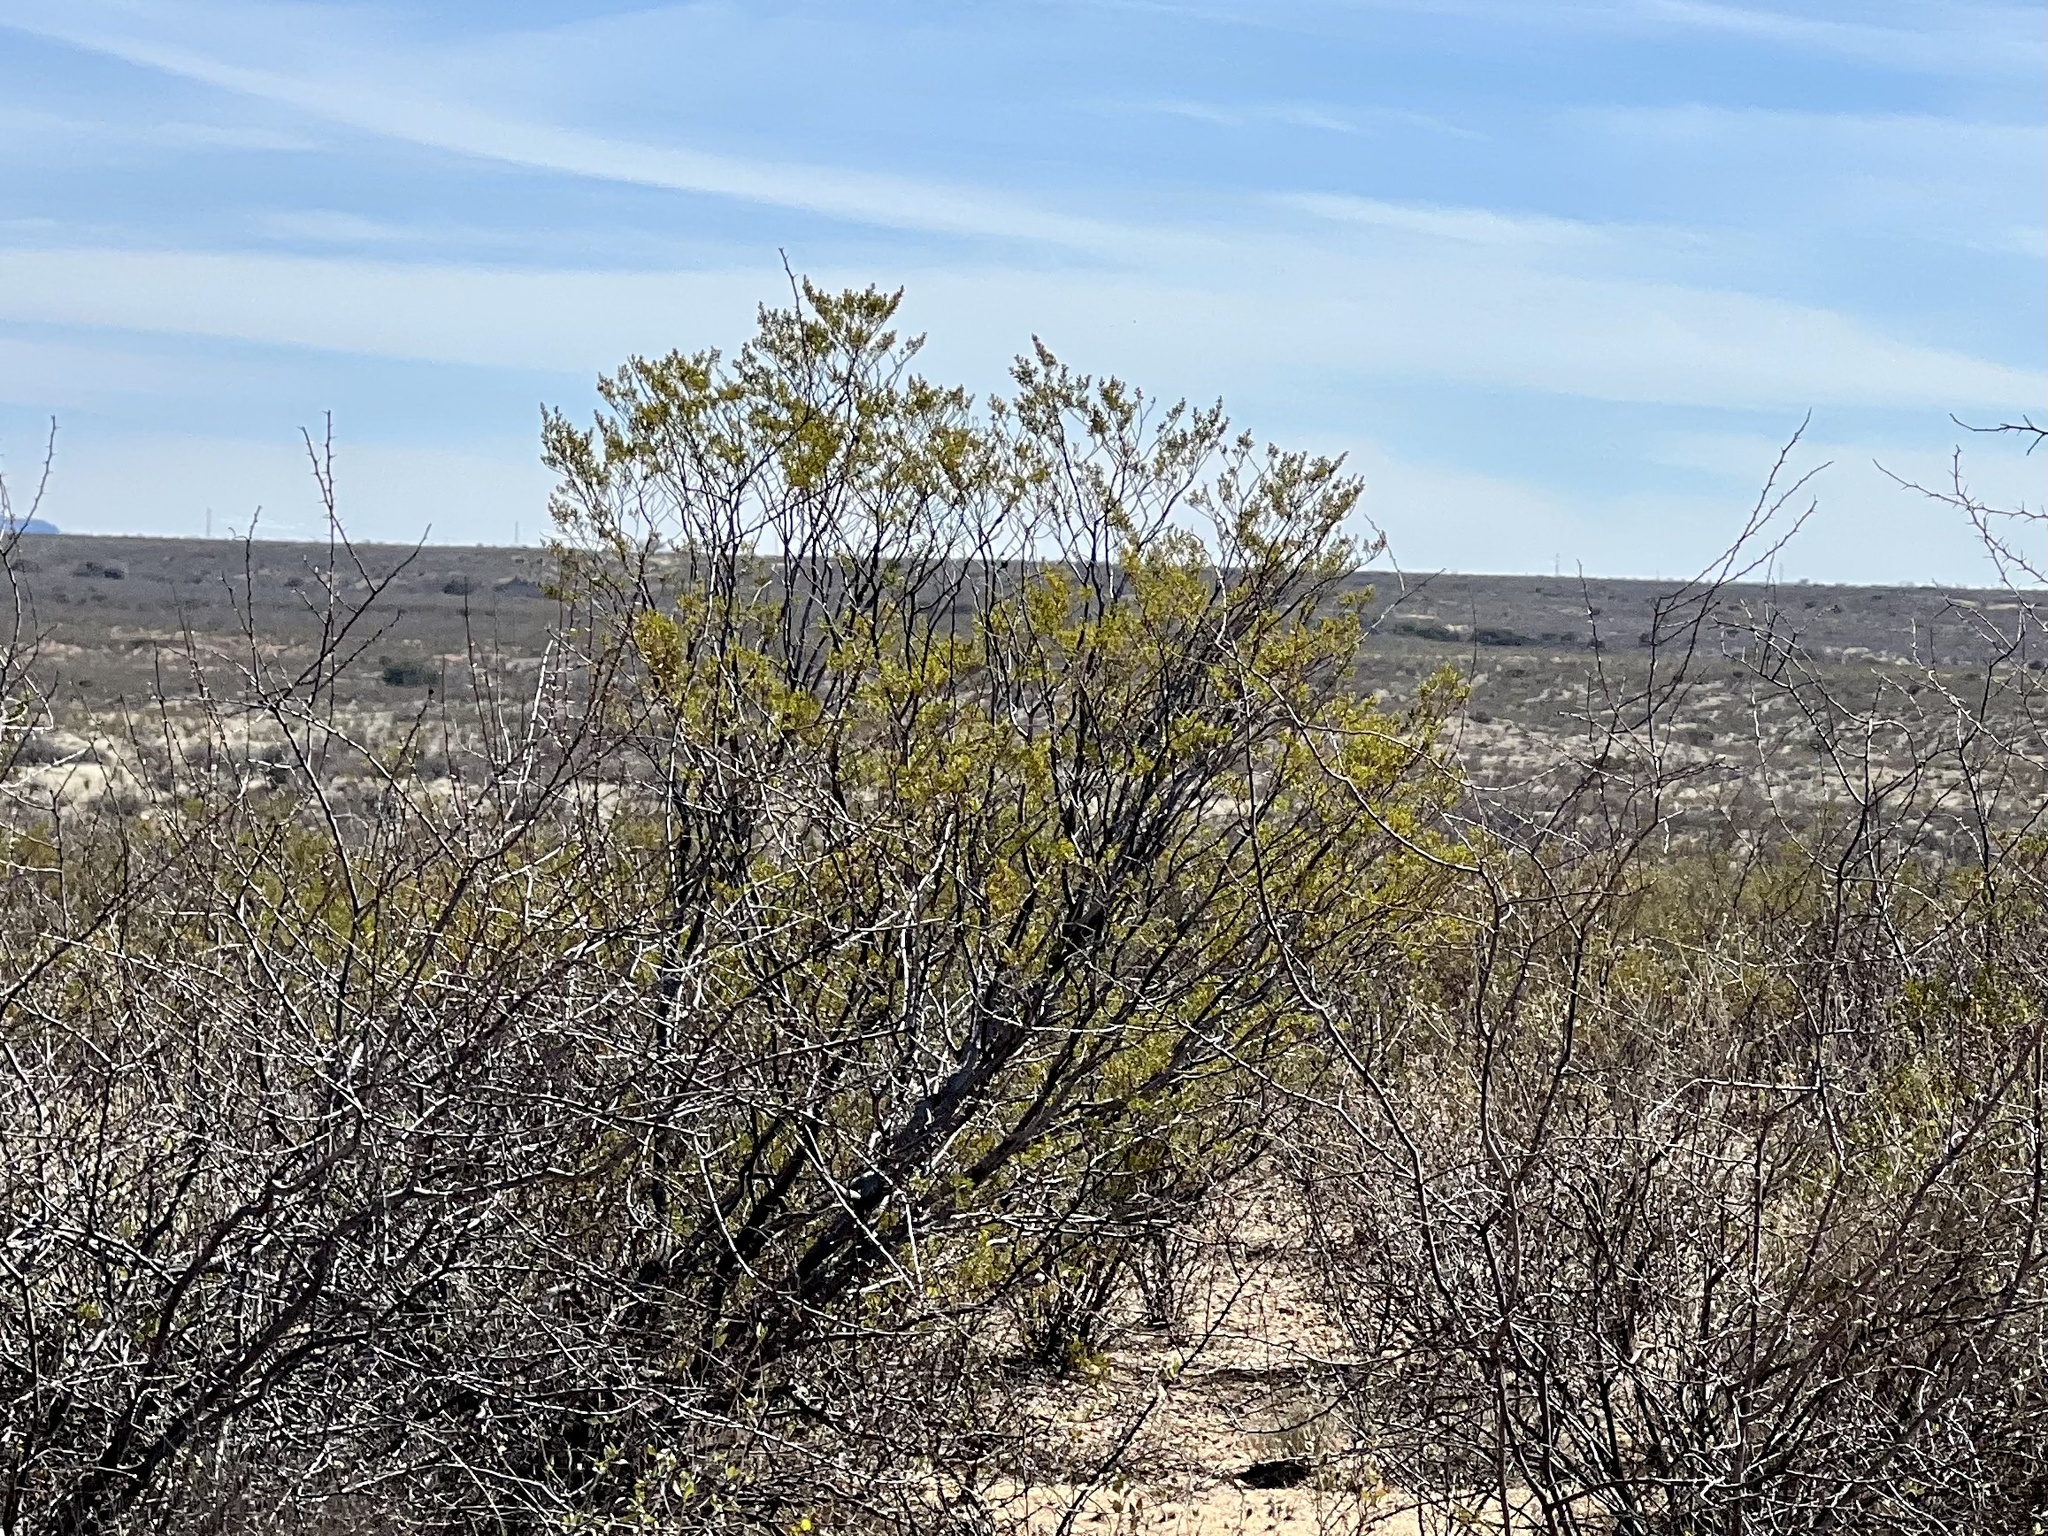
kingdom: Plantae
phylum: Tracheophyta
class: Magnoliopsida
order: Zygophyllales
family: Zygophyllaceae
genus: Larrea
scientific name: Larrea tridentata
